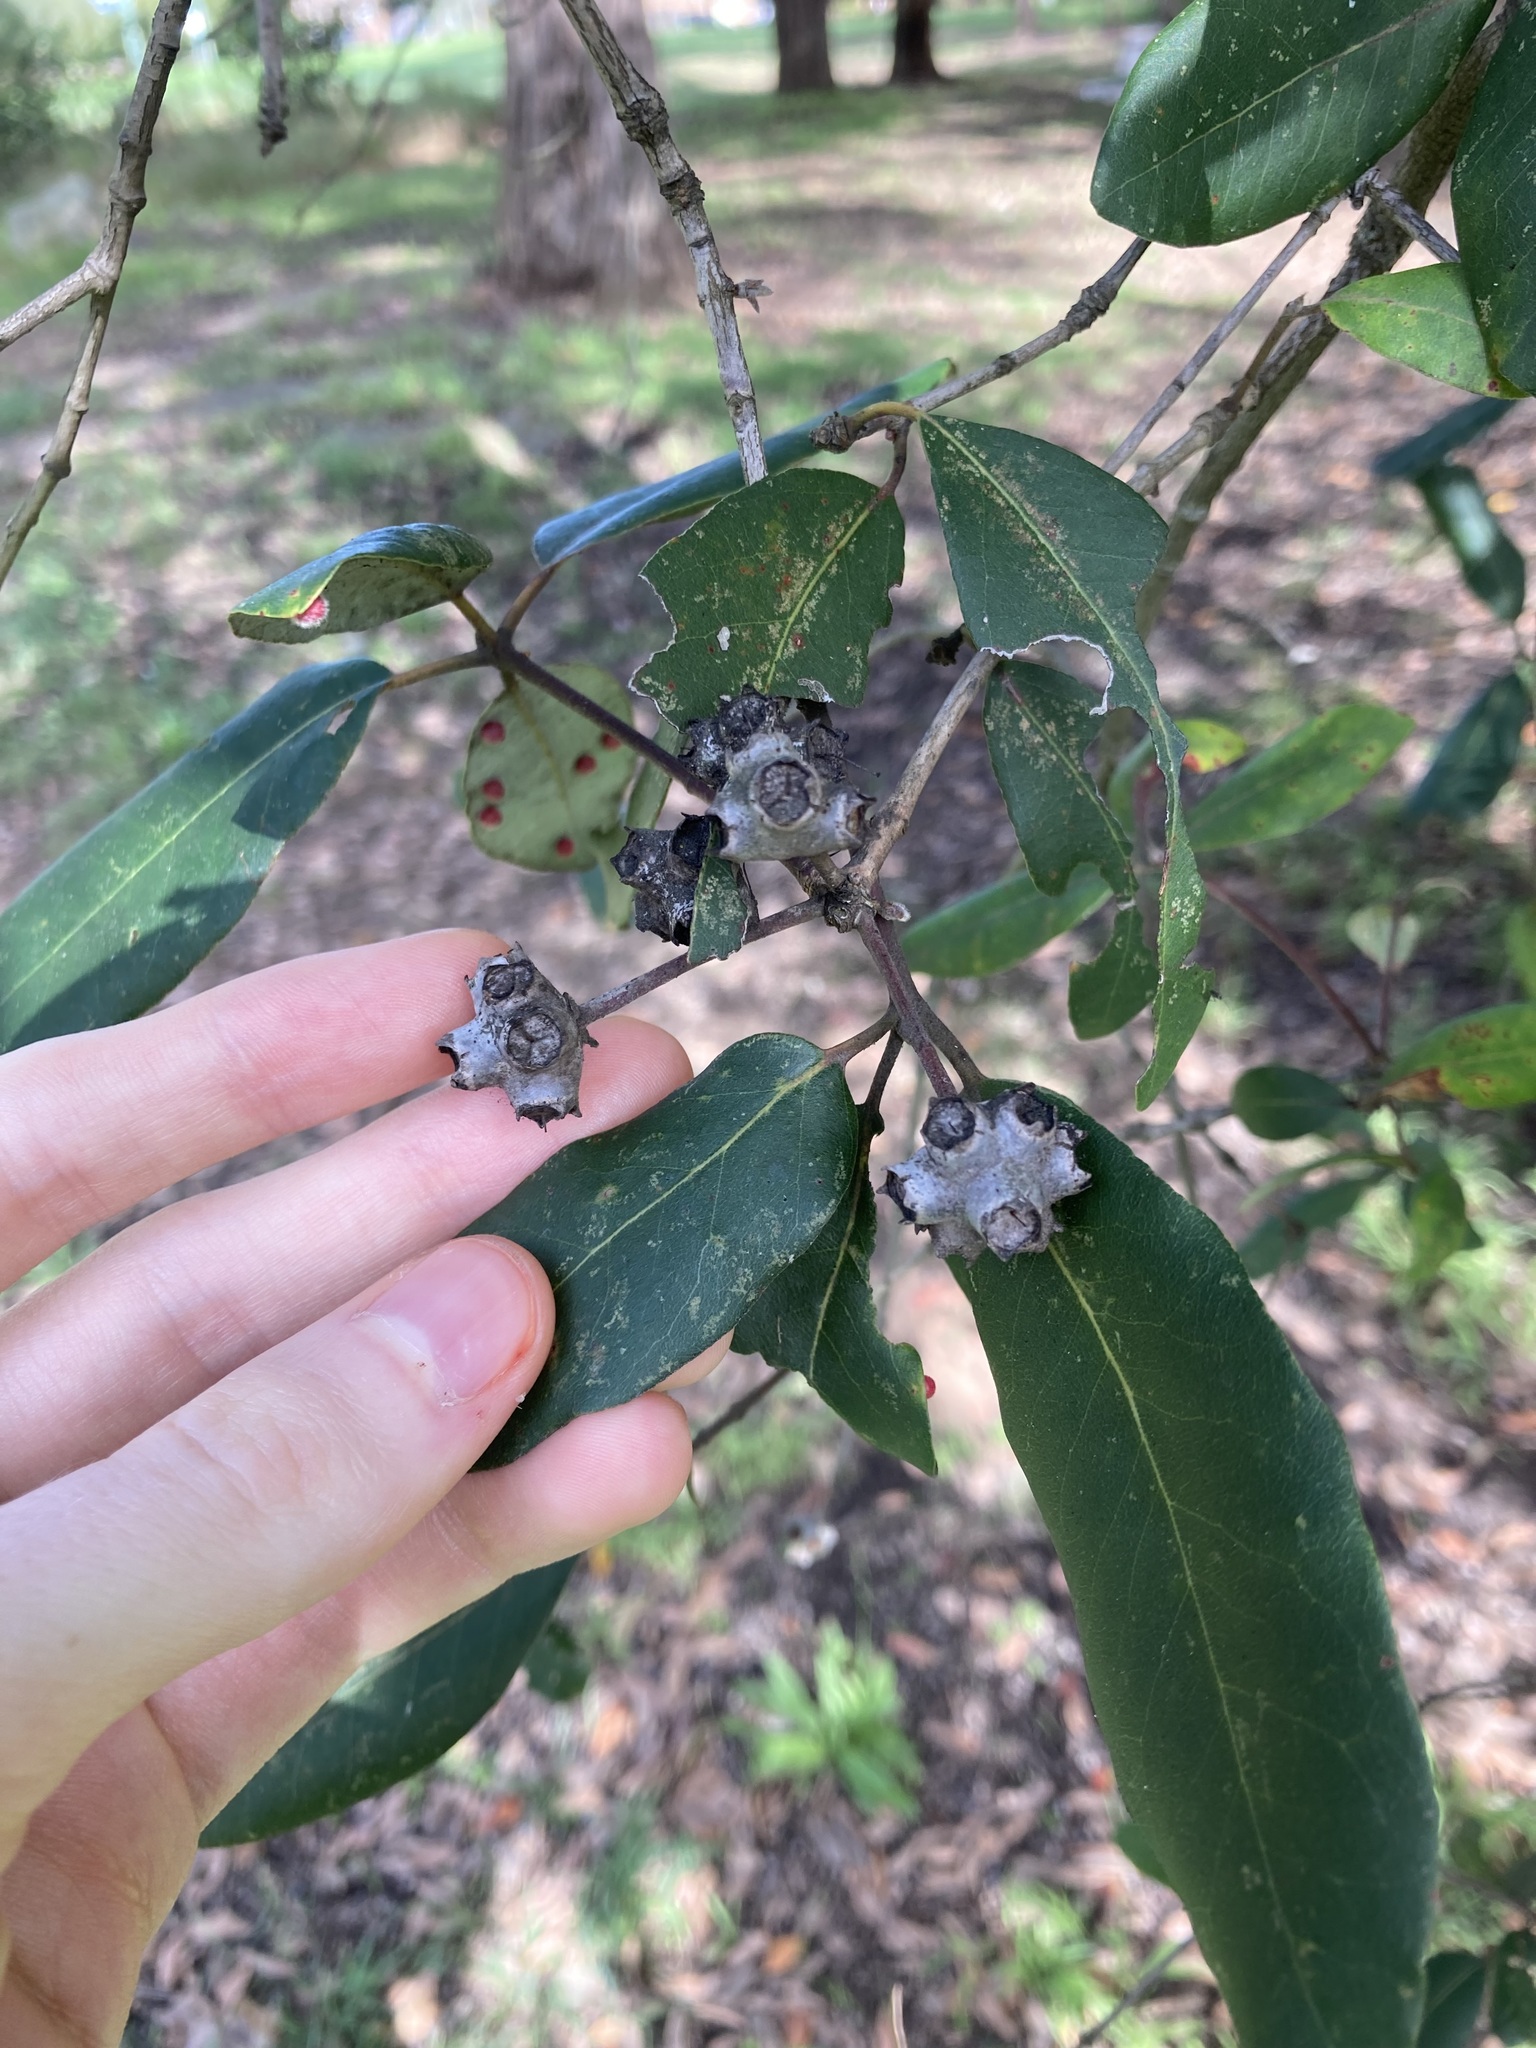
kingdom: Plantae
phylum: Tracheophyta
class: Magnoliopsida
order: Myrtales
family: Myrtaceae
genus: Syncarpia
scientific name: Syncarpia glomulifera
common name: Turpentine tree
